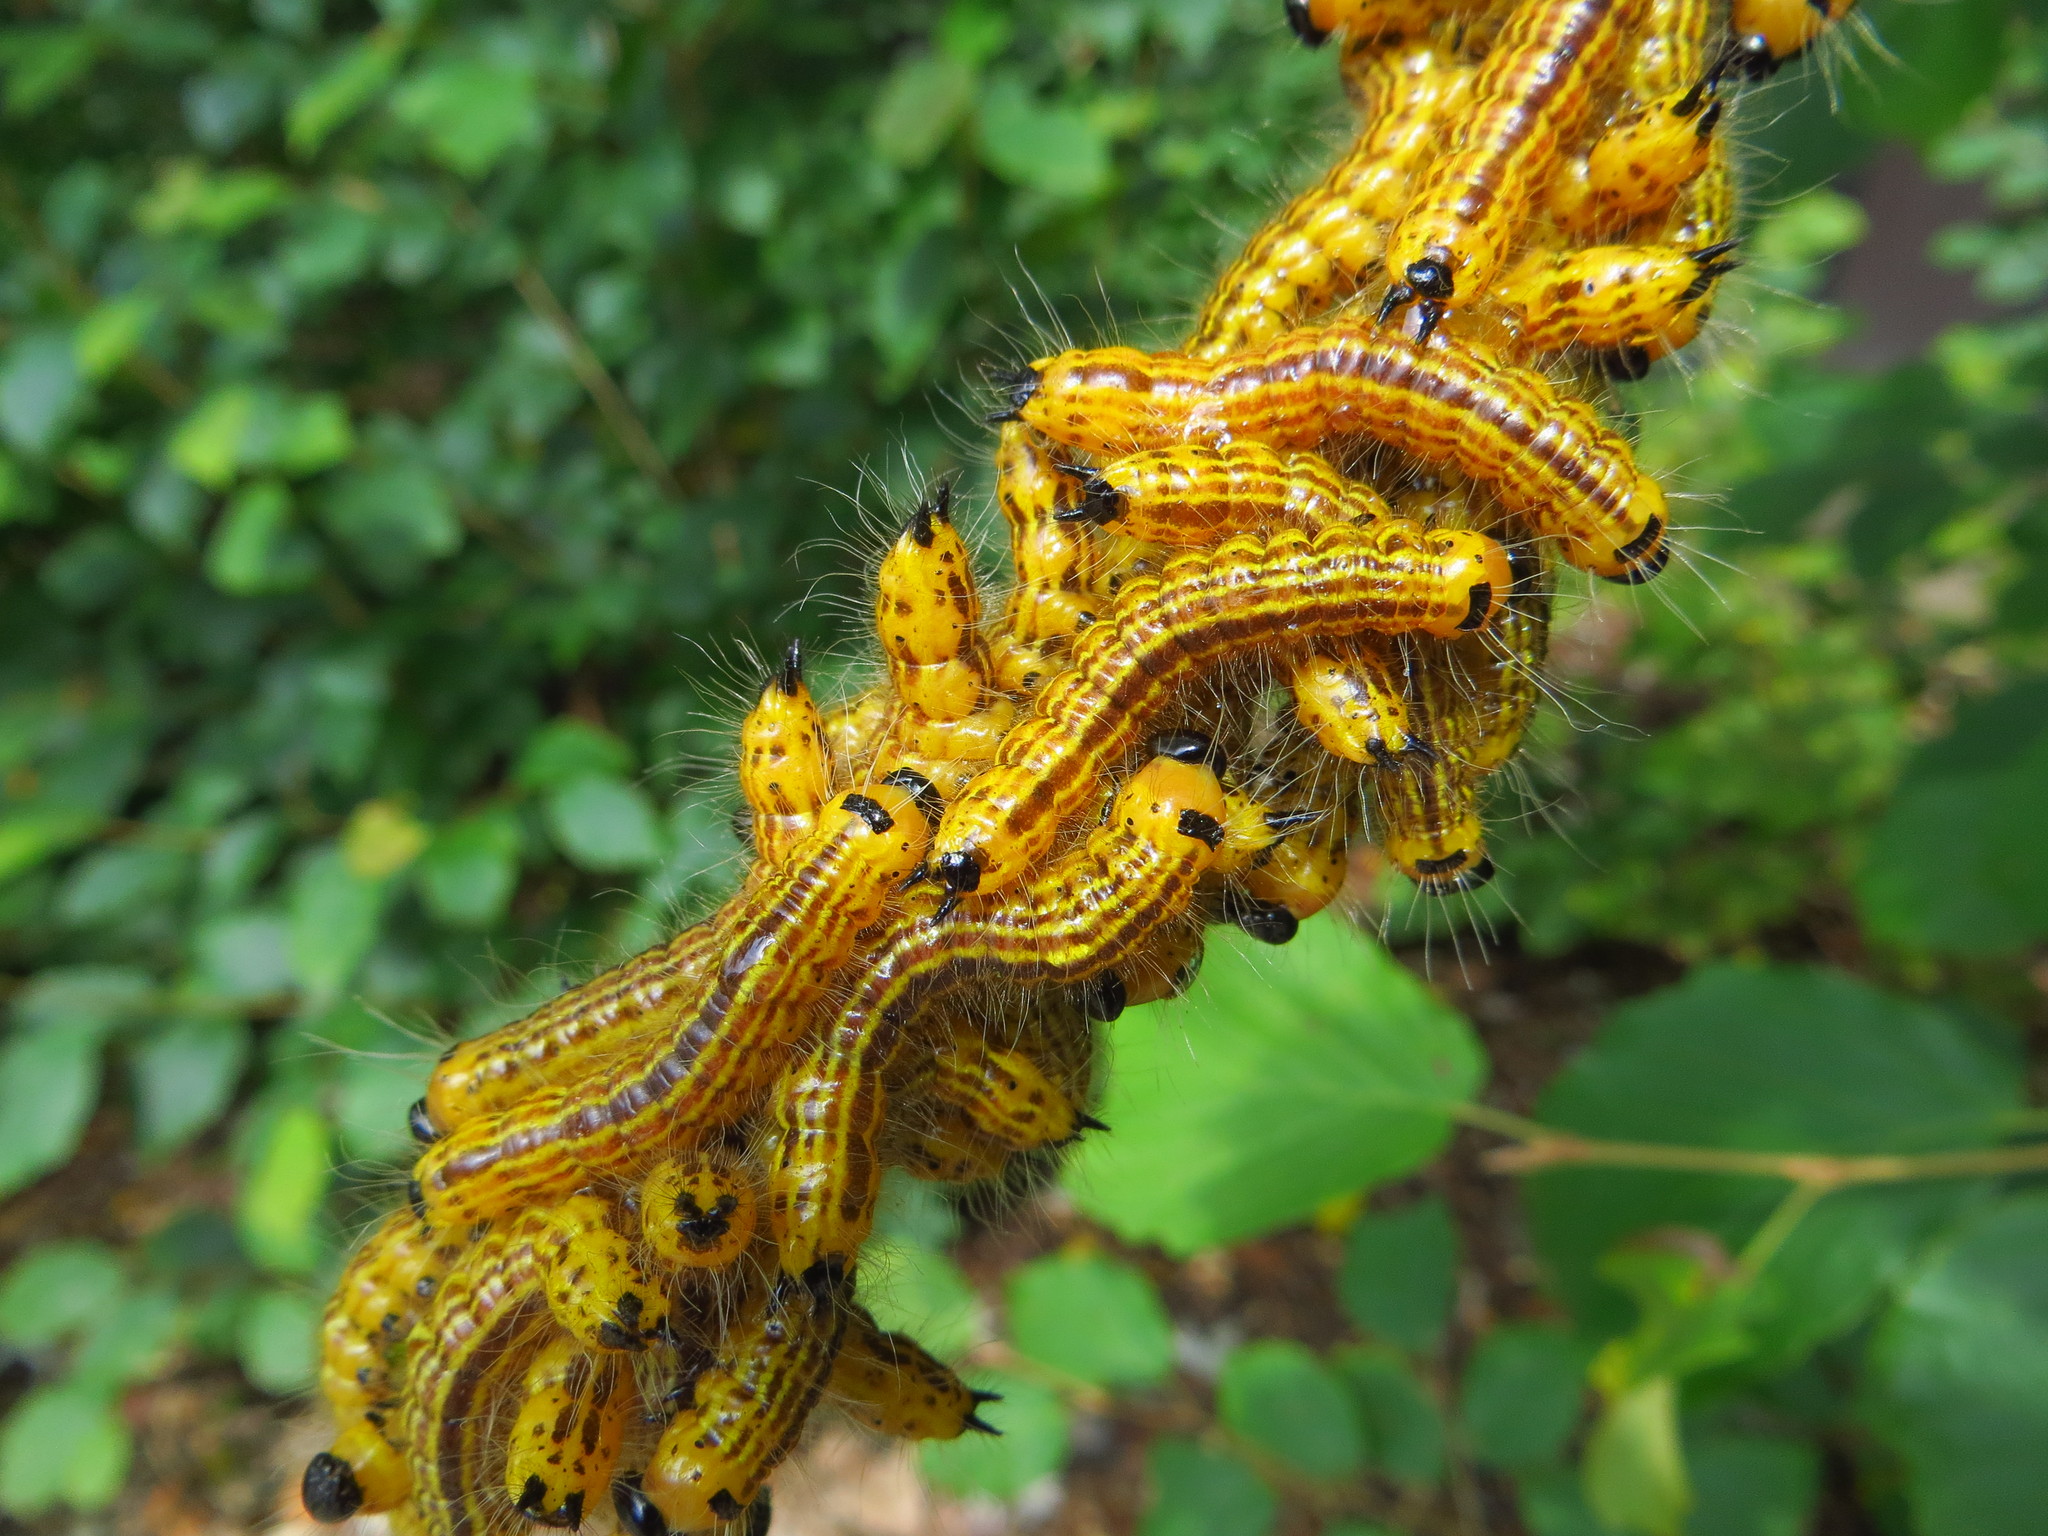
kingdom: Animalia
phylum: Arthropoda
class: Insecta
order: Lepidoptera
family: Notodontidae
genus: Datana
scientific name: Datana drexelii
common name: Drexel's datana
